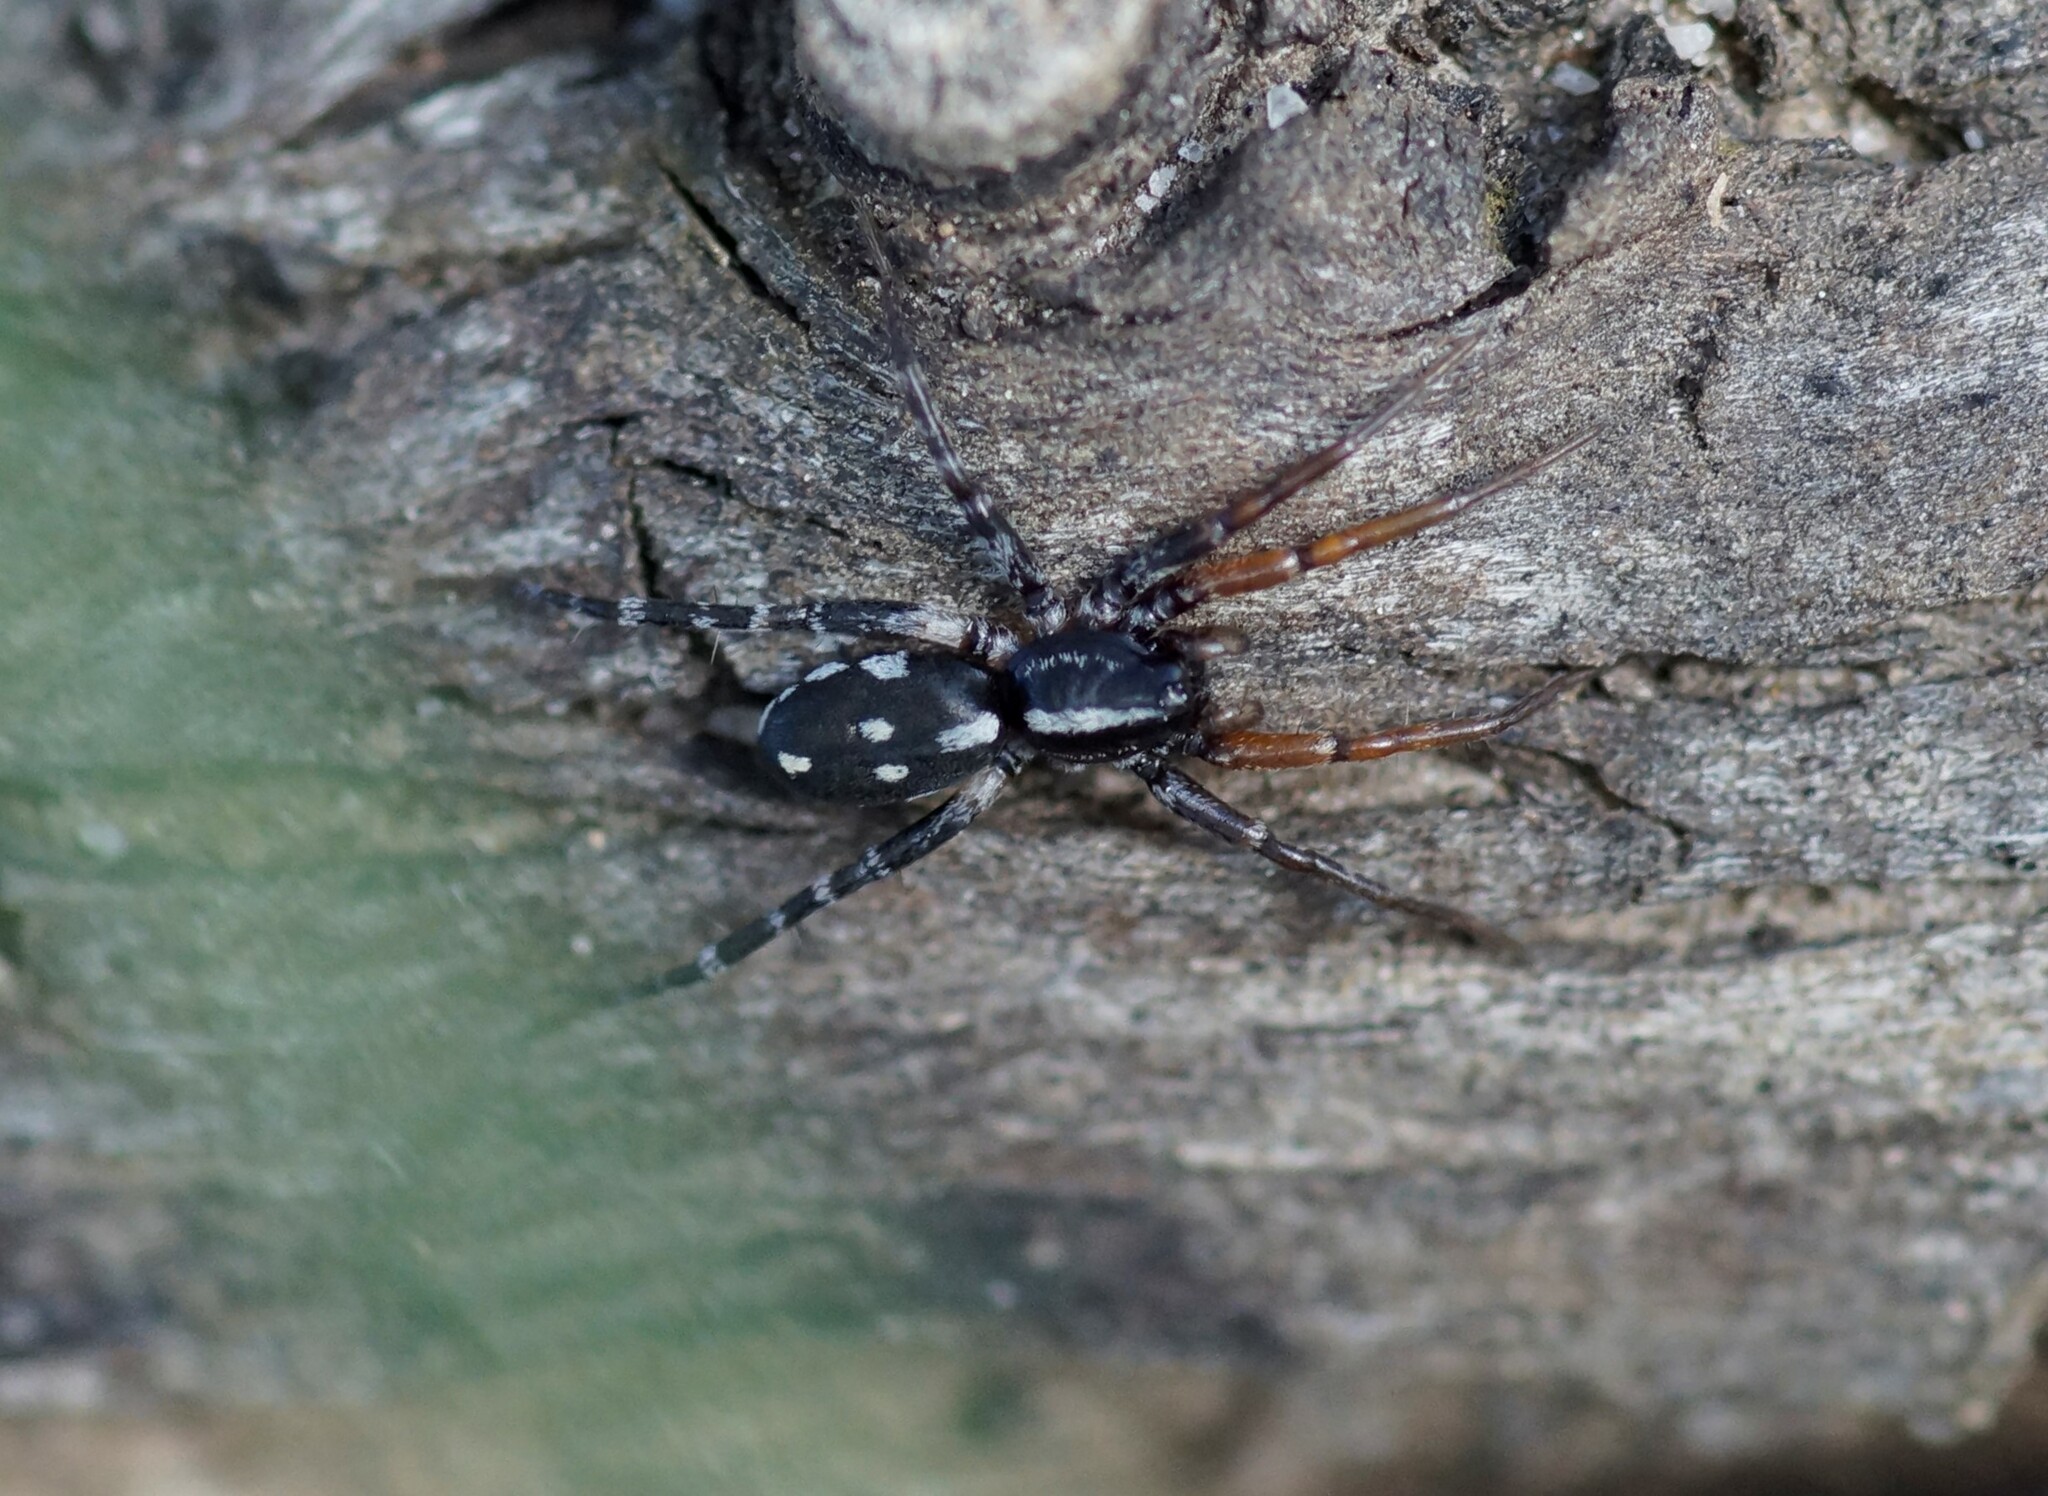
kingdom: Animalia
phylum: Arthropoda
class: Arachnida
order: Araneae
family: Corinnidae
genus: Nyssus
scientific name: Nyssus coloripes
